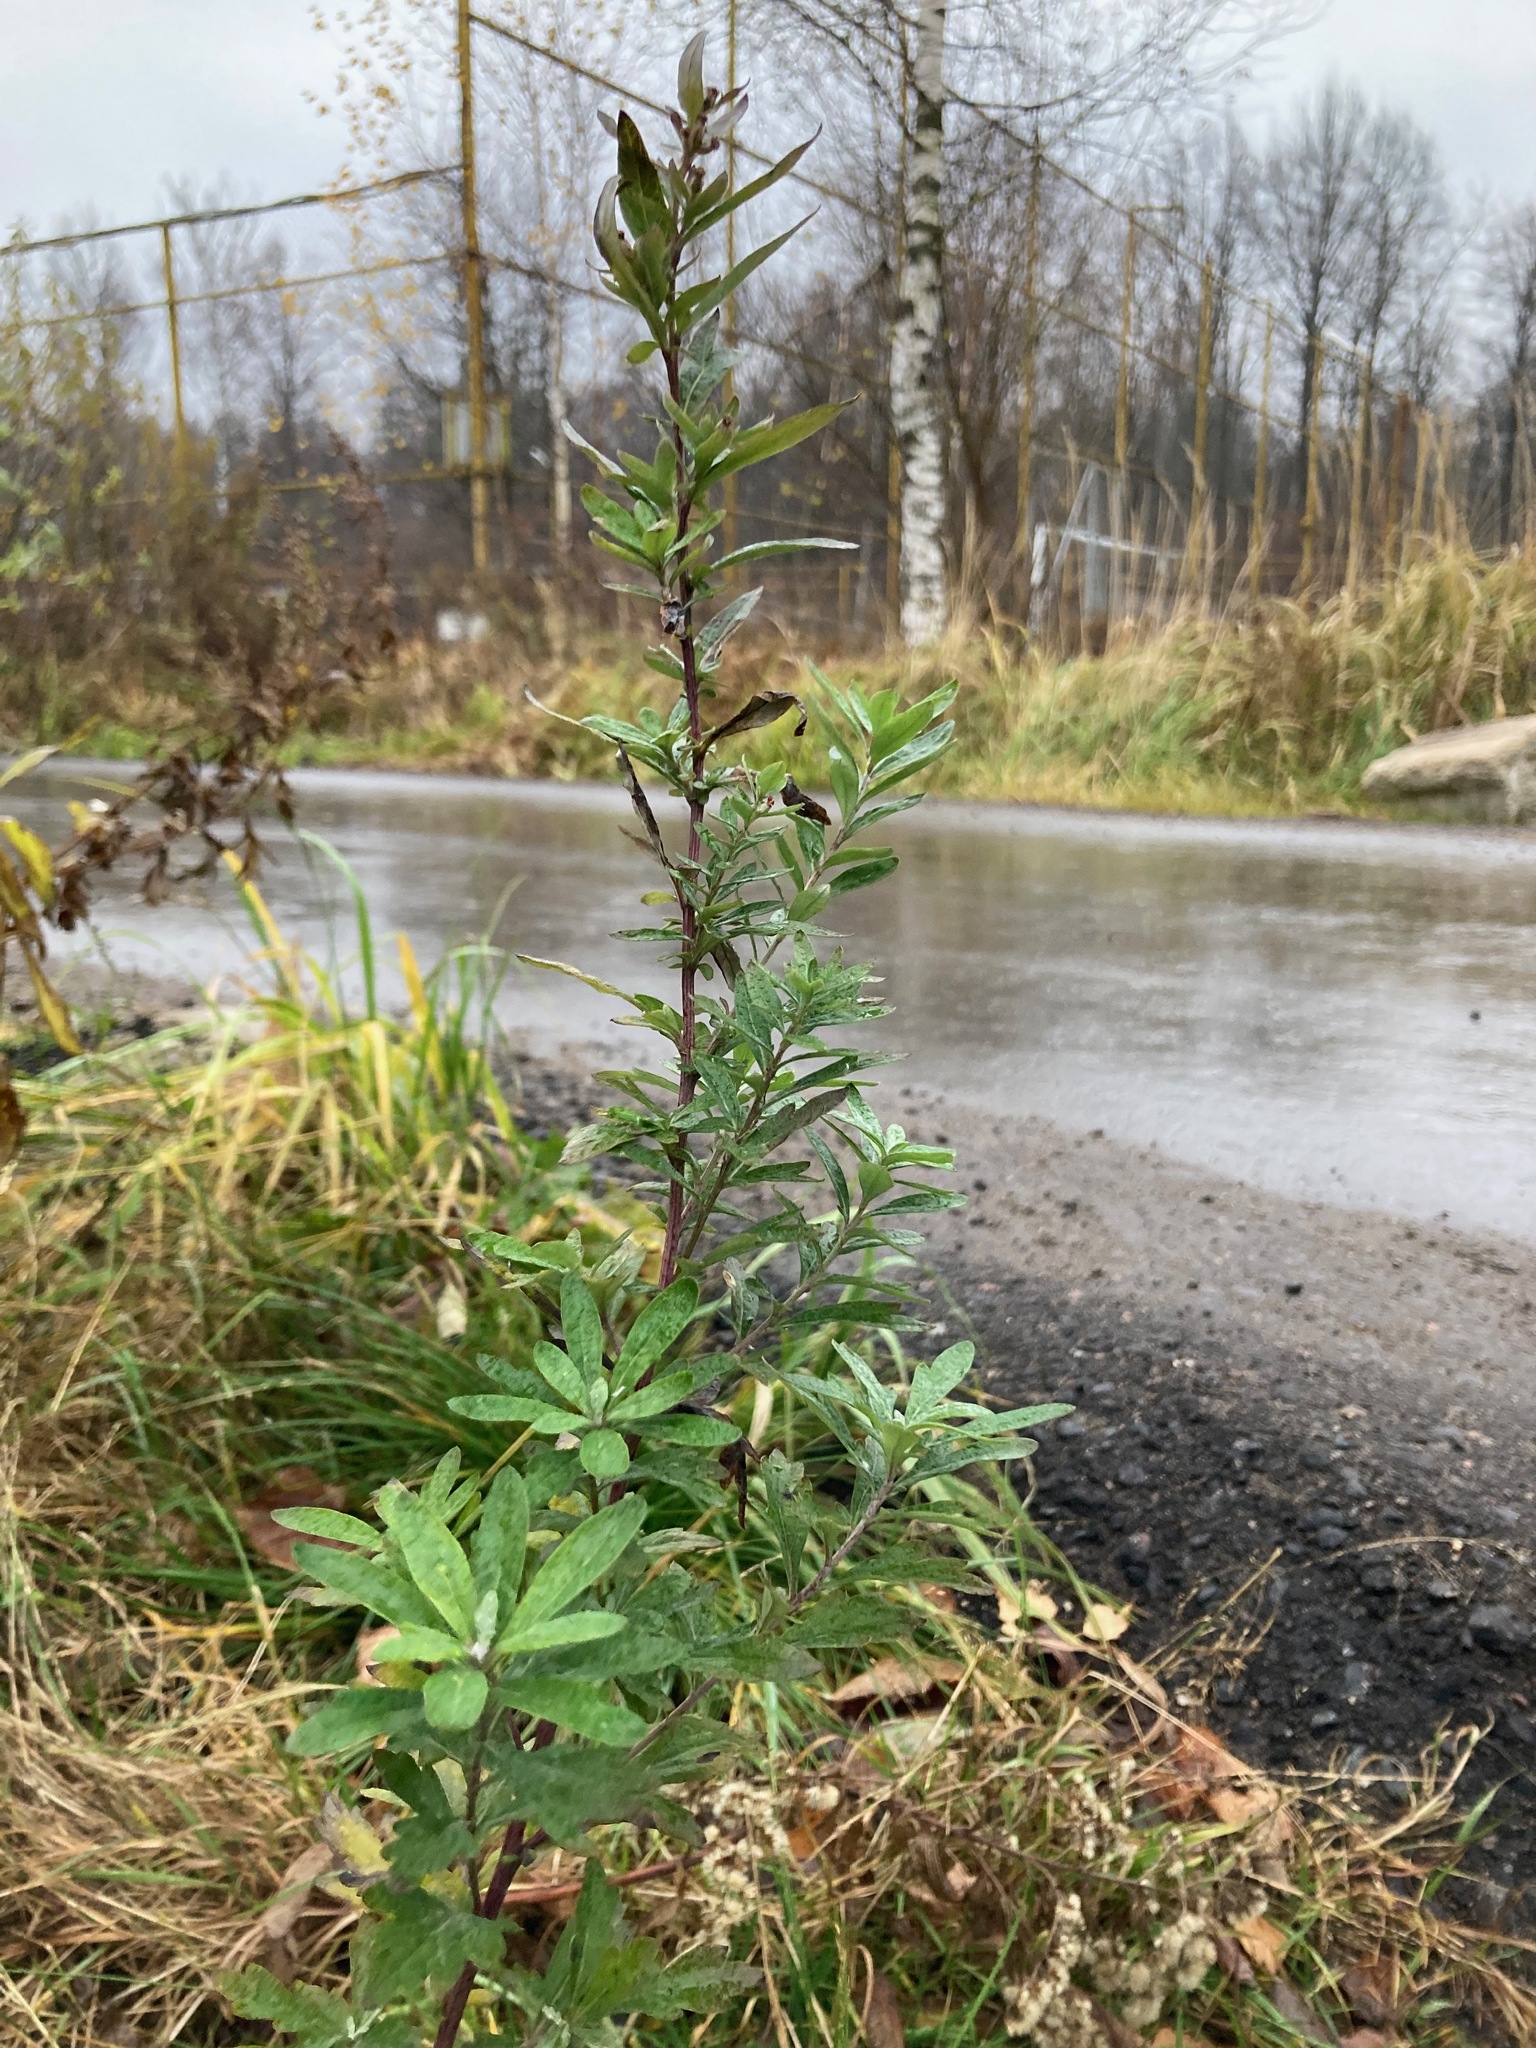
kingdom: Plantae
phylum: Tracheophyta
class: Magnoliopsida
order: Asterales
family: Asteraceae
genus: Artemisia
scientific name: Artemisia vulgaris
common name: Mugwort
